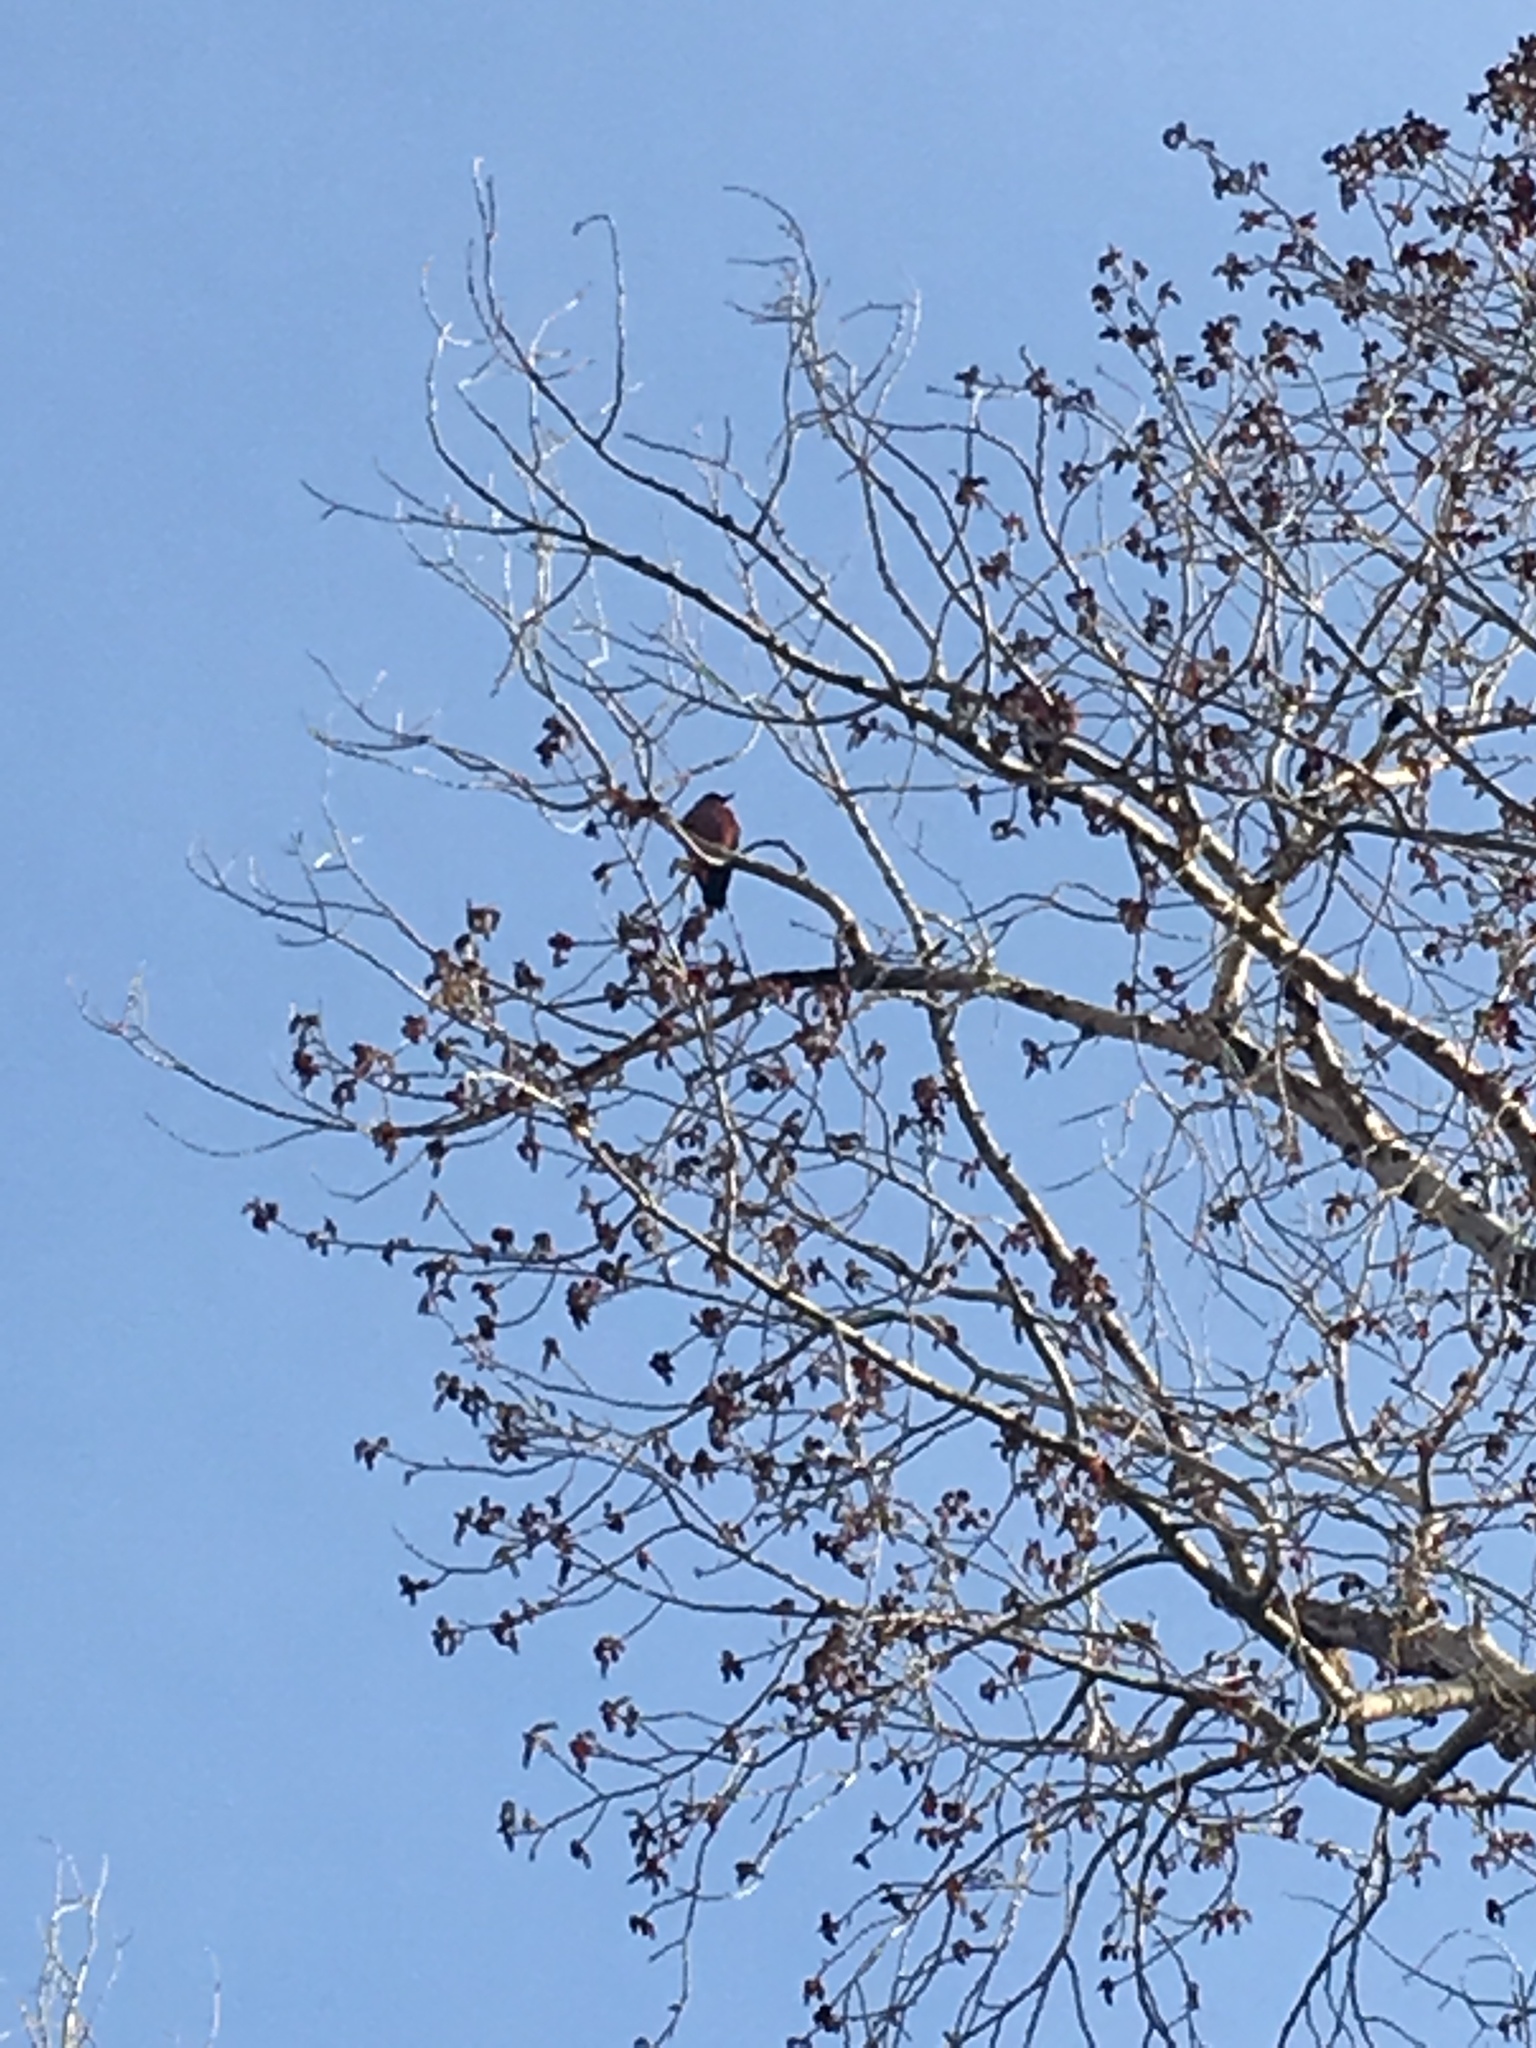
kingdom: Animalia
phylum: Chordata
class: Aves
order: Piciformes
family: Picidae
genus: Melanerpes
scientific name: Melanerpes lewis
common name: Lewis's woodpecker
